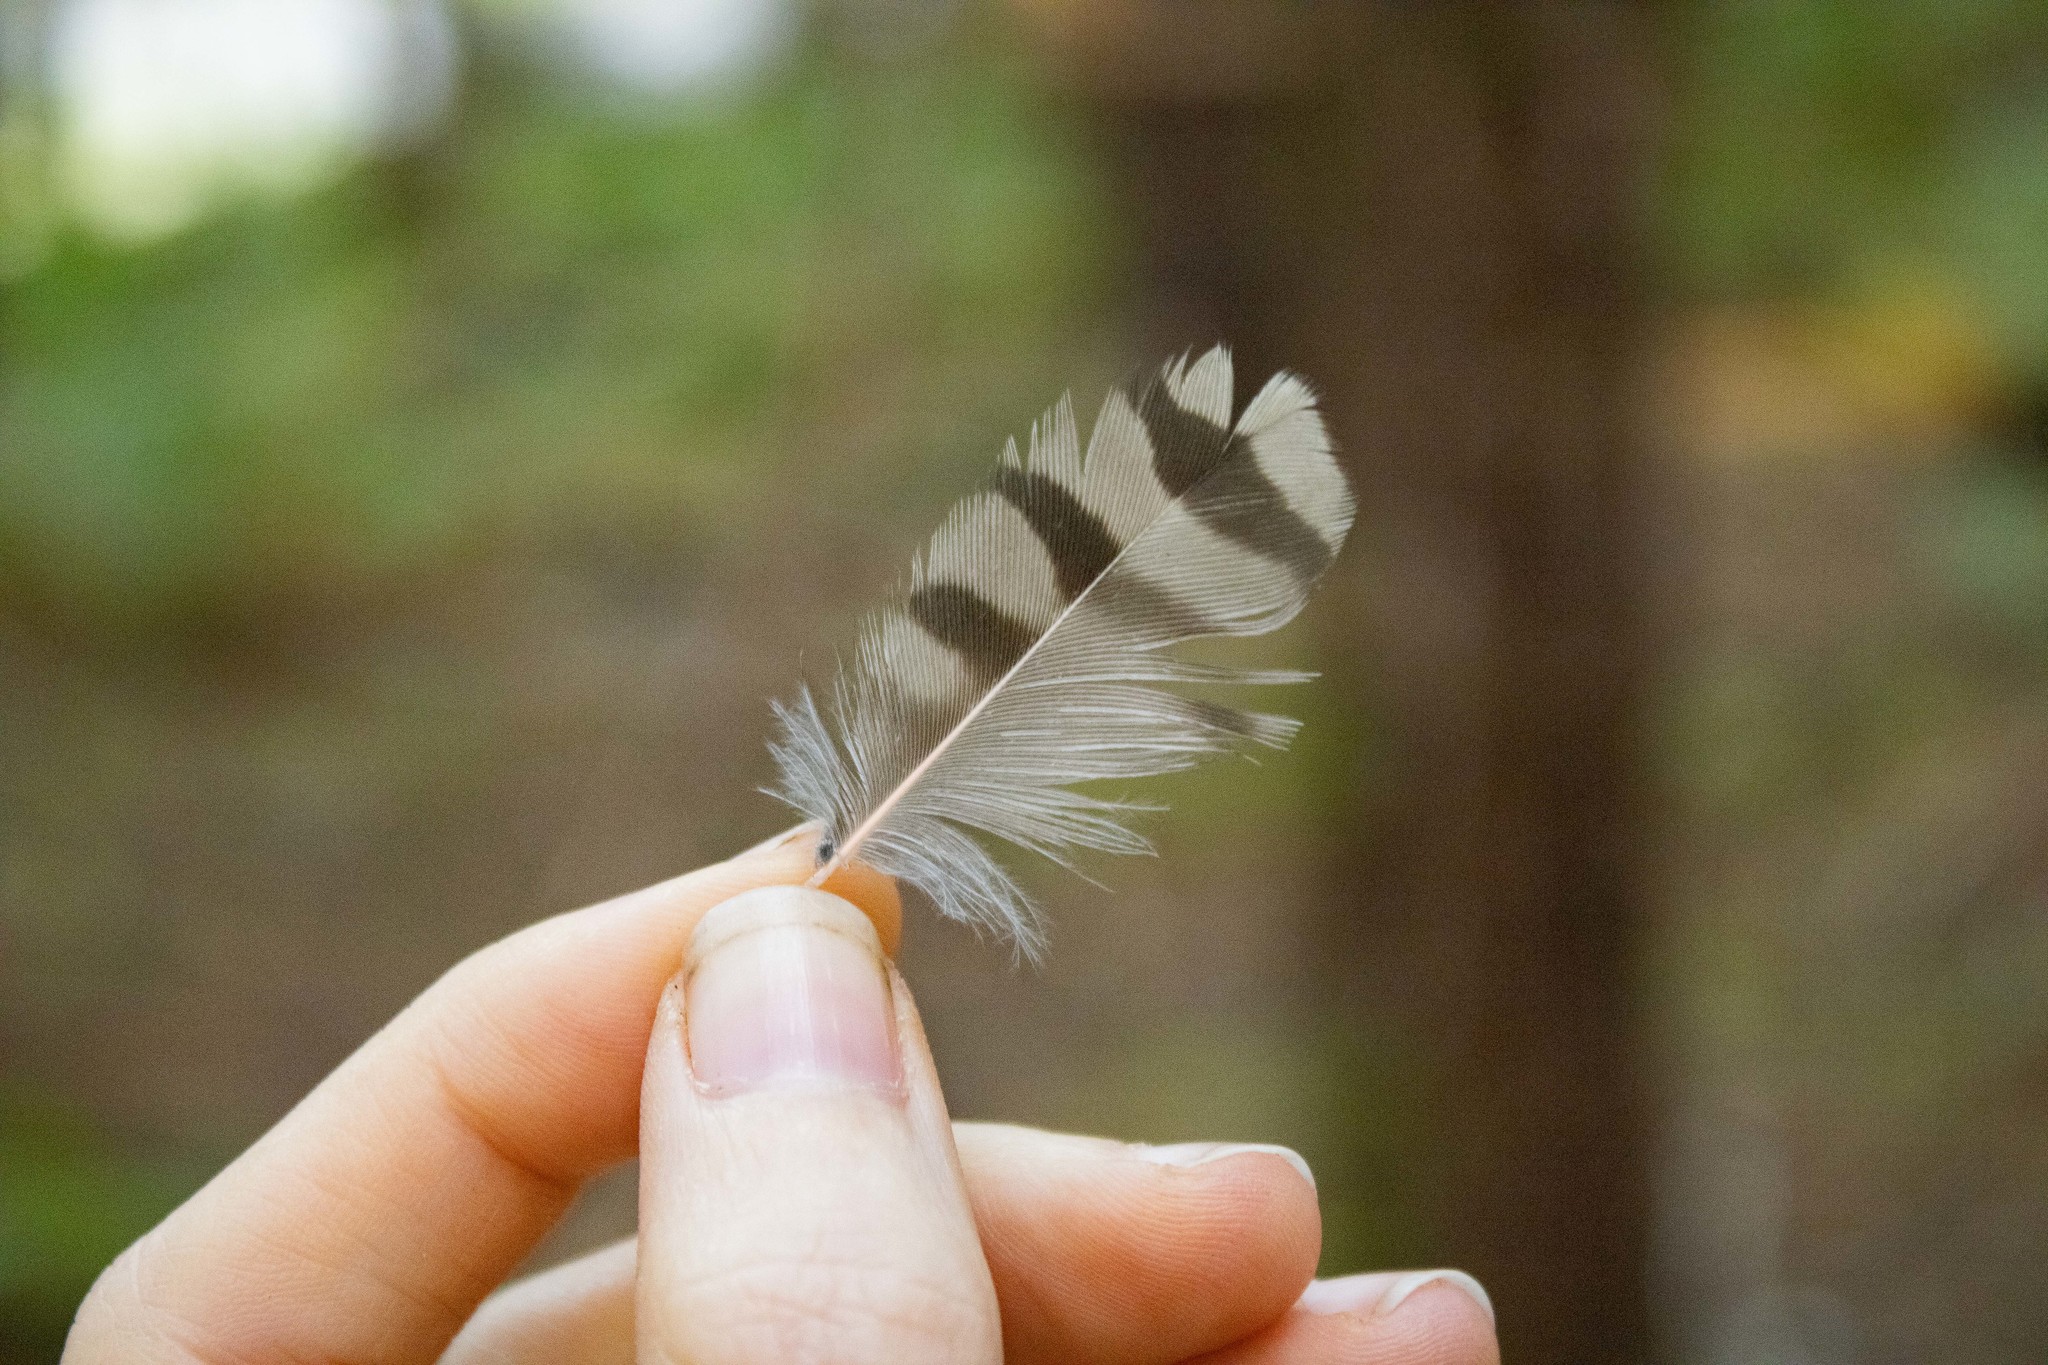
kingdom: Animalia
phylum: Chordata
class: Aves
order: Piciformes
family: Picidae
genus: Colaptes
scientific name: Colaptes auratus
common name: Northern flicker
